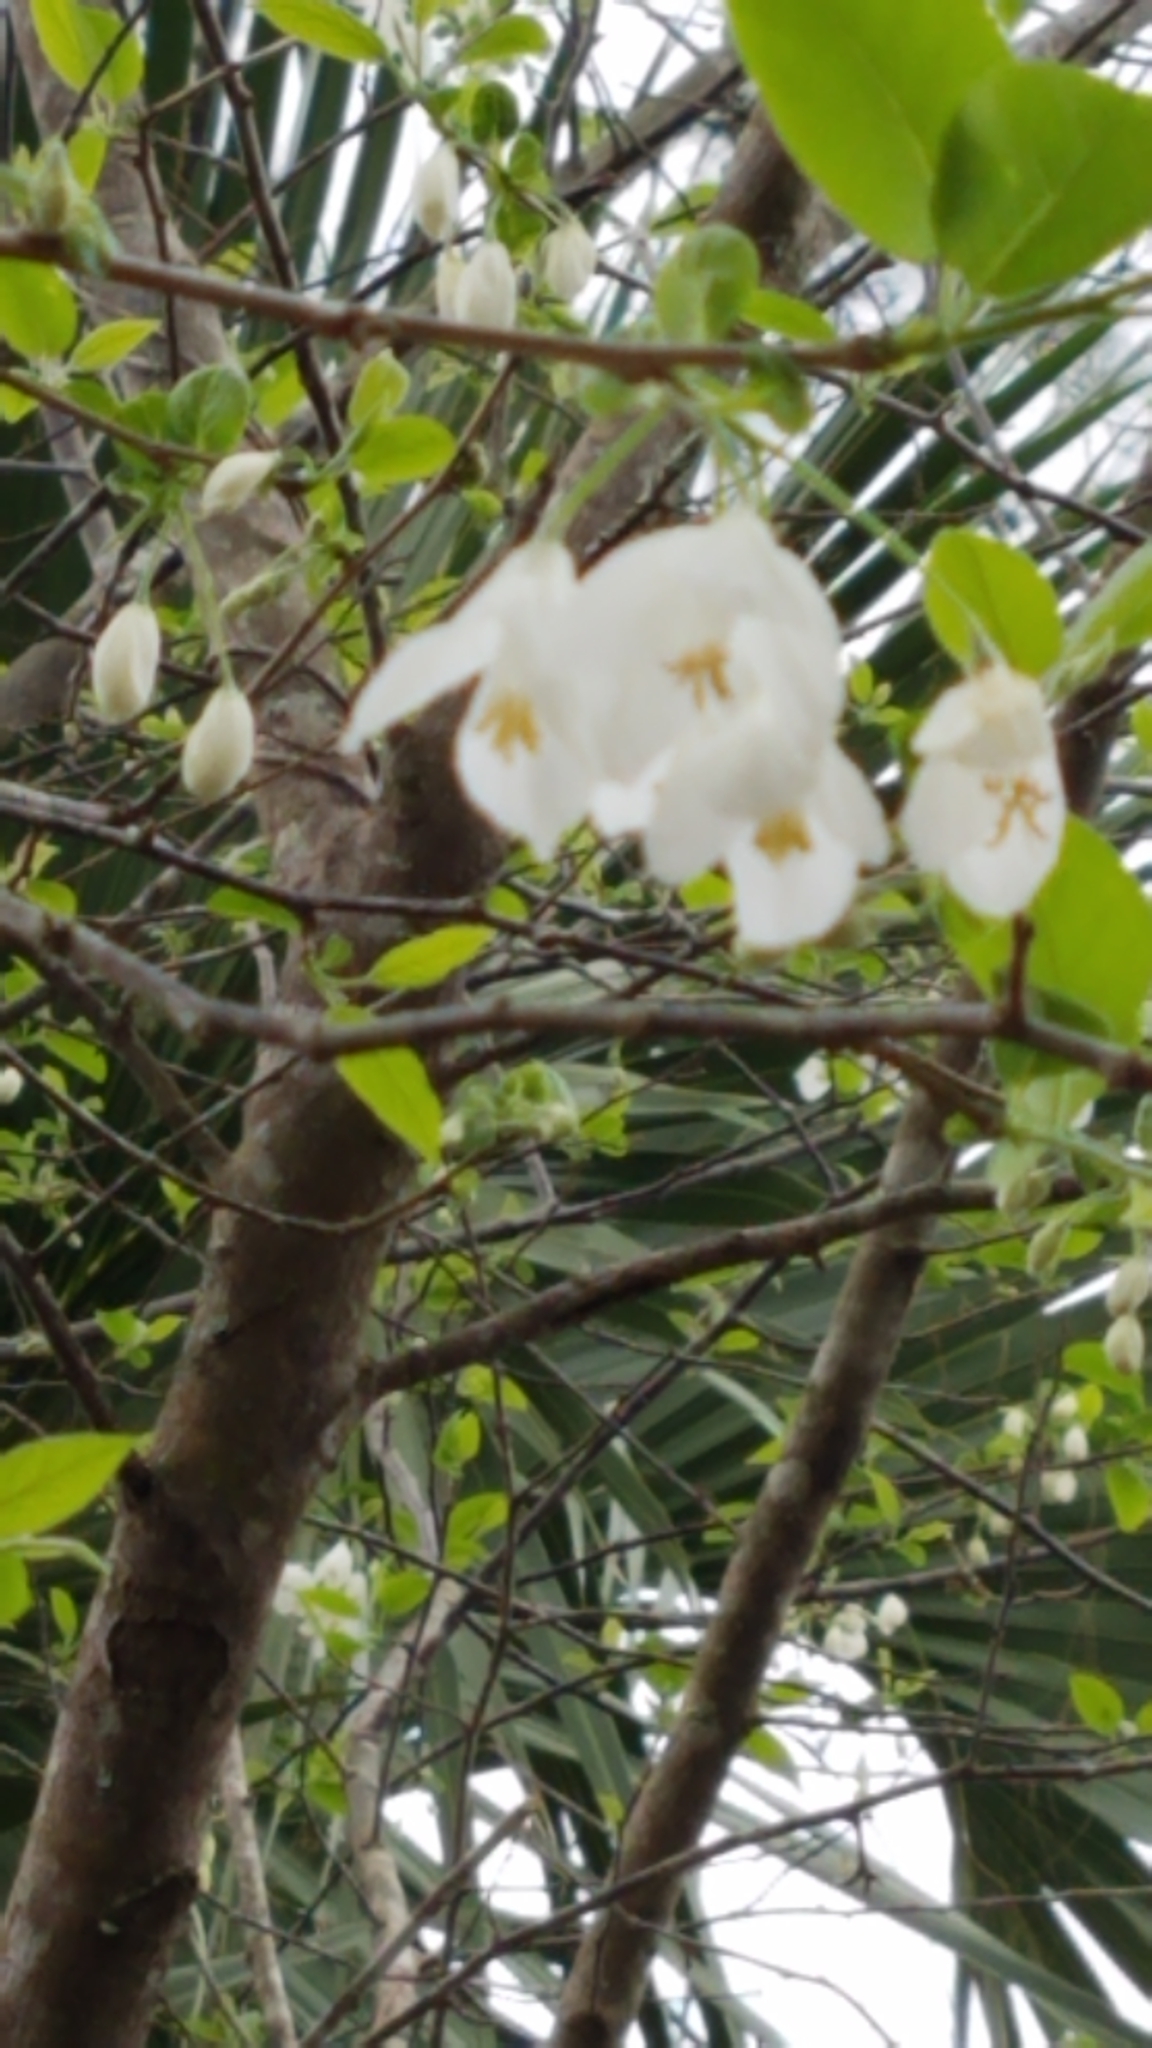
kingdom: Plantae
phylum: Tracheophyta
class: Magnoliopsida
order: Ericales
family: Styracaceae
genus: Halesia
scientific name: Halesia diptera
